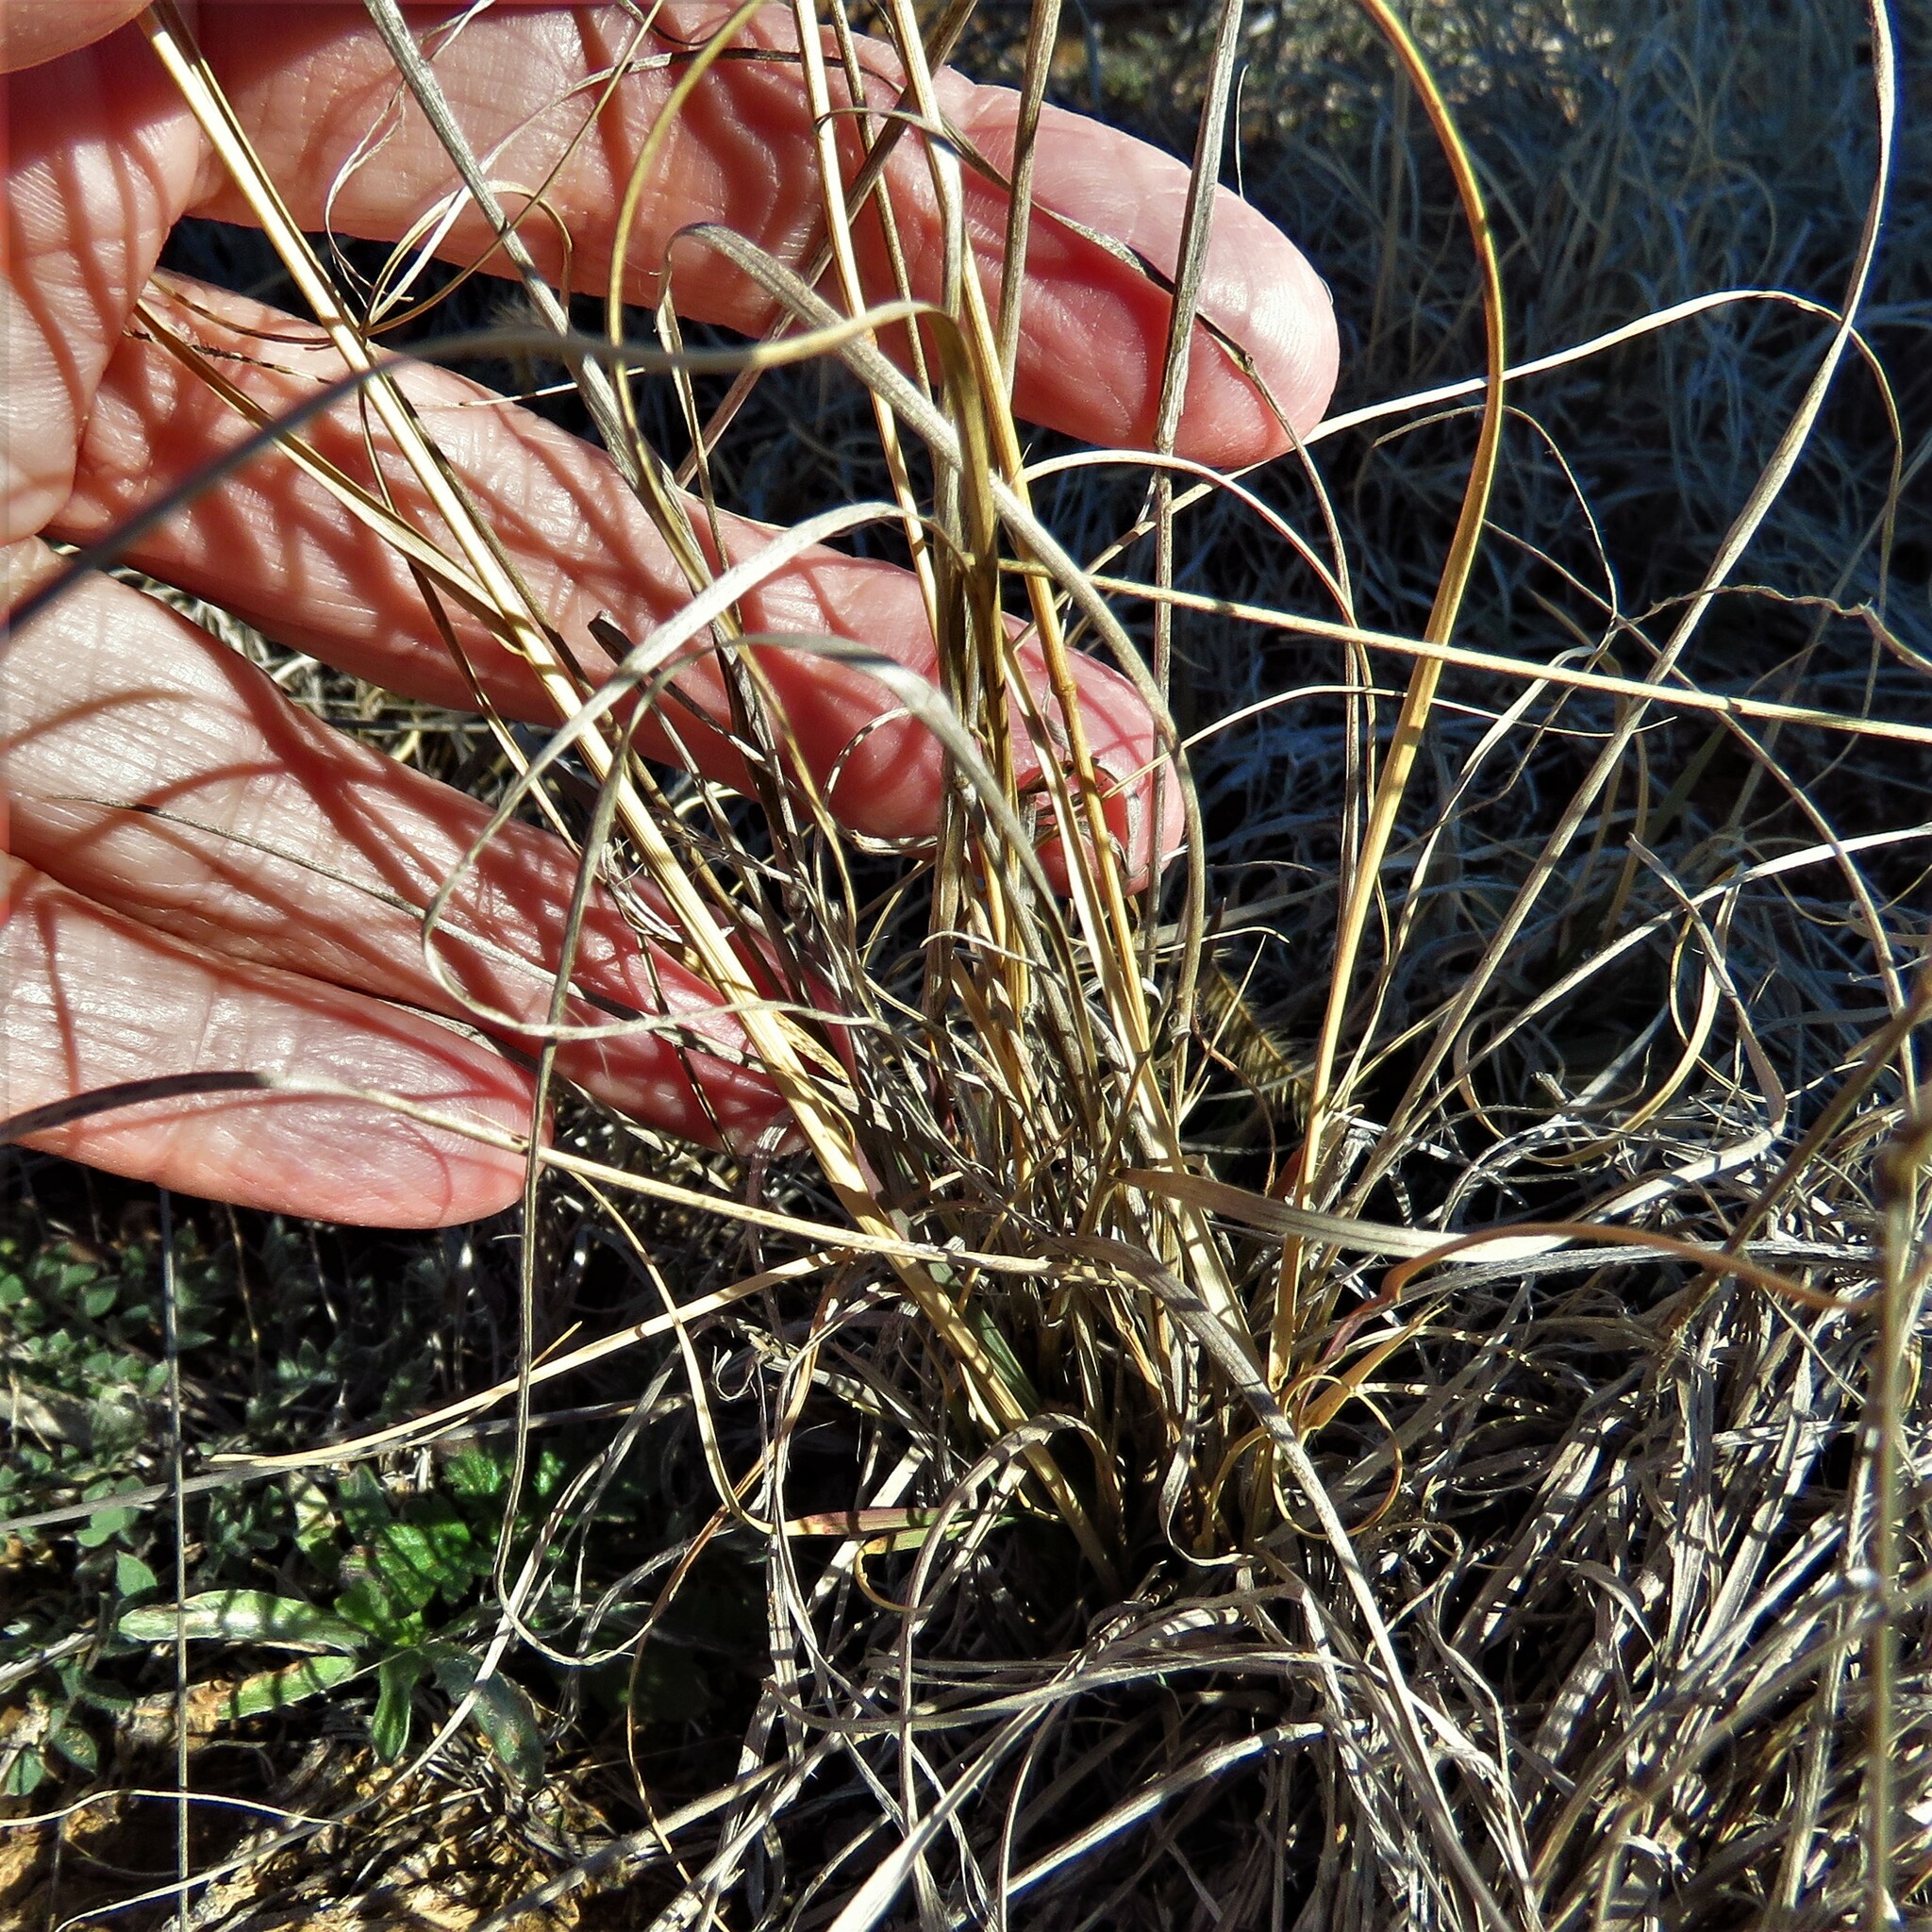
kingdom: Plantae
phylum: Tracheophyta
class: Liliopsida
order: Poales
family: Poaceae
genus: Bouteloua
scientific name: Bouteloua hirsuta
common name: Hairy grama
